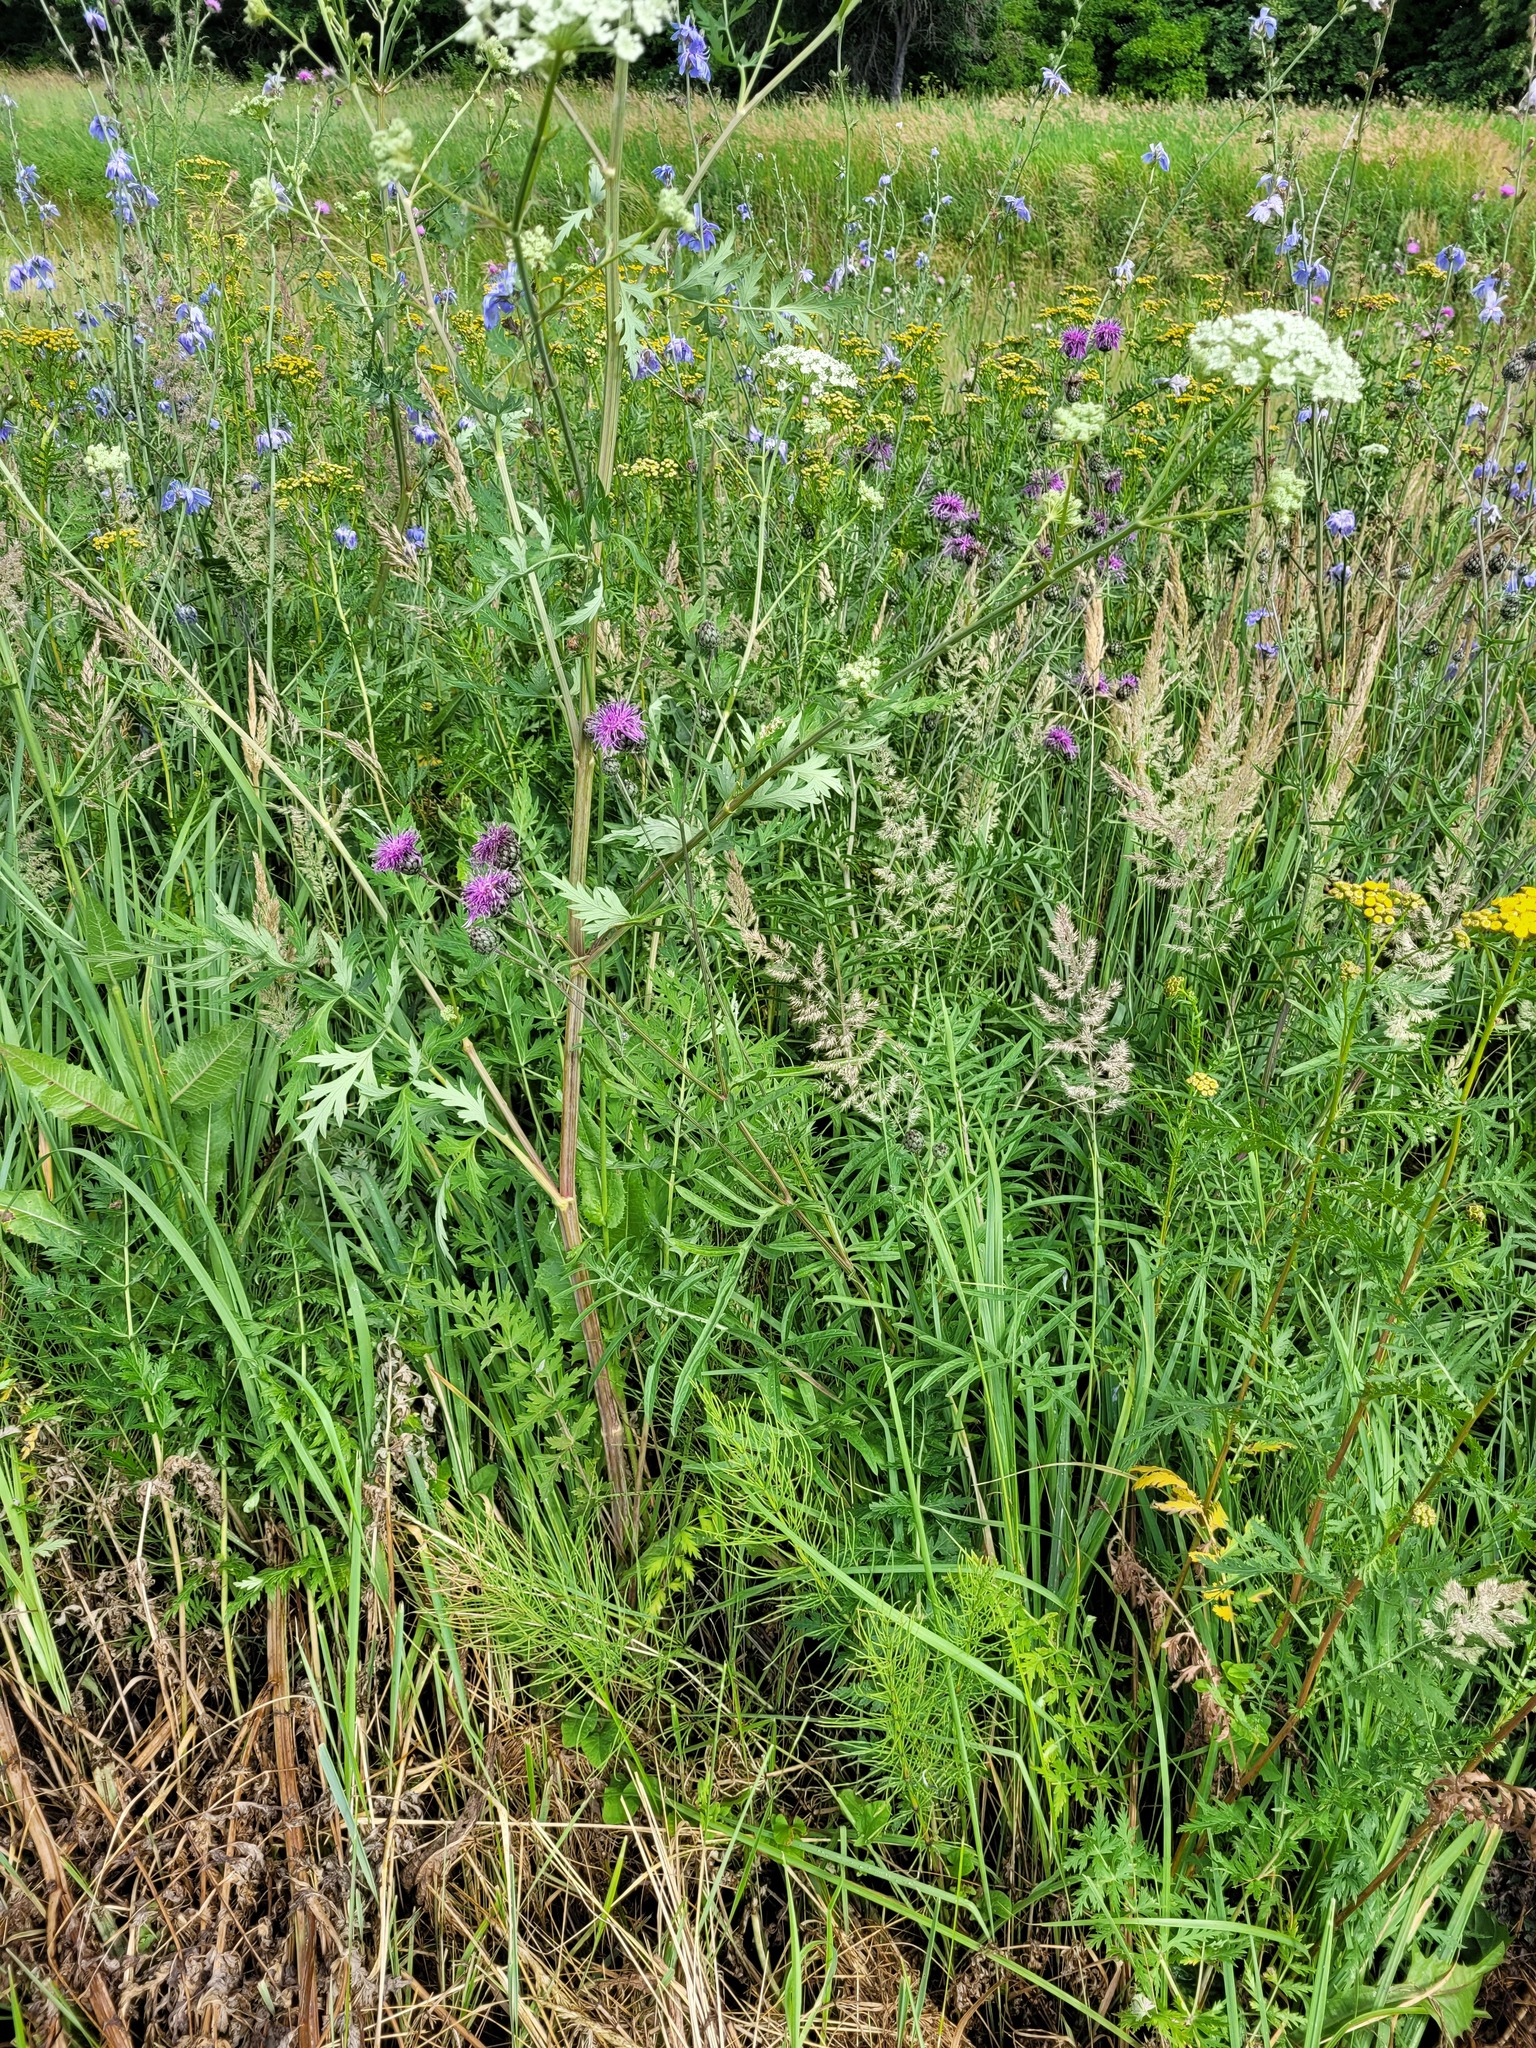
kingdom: Plantae
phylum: Tracheophyta
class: Magnoliopsida
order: Apiales
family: Apiaceae
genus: Seseli
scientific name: Seseli libanotis
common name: Mooncarrot
